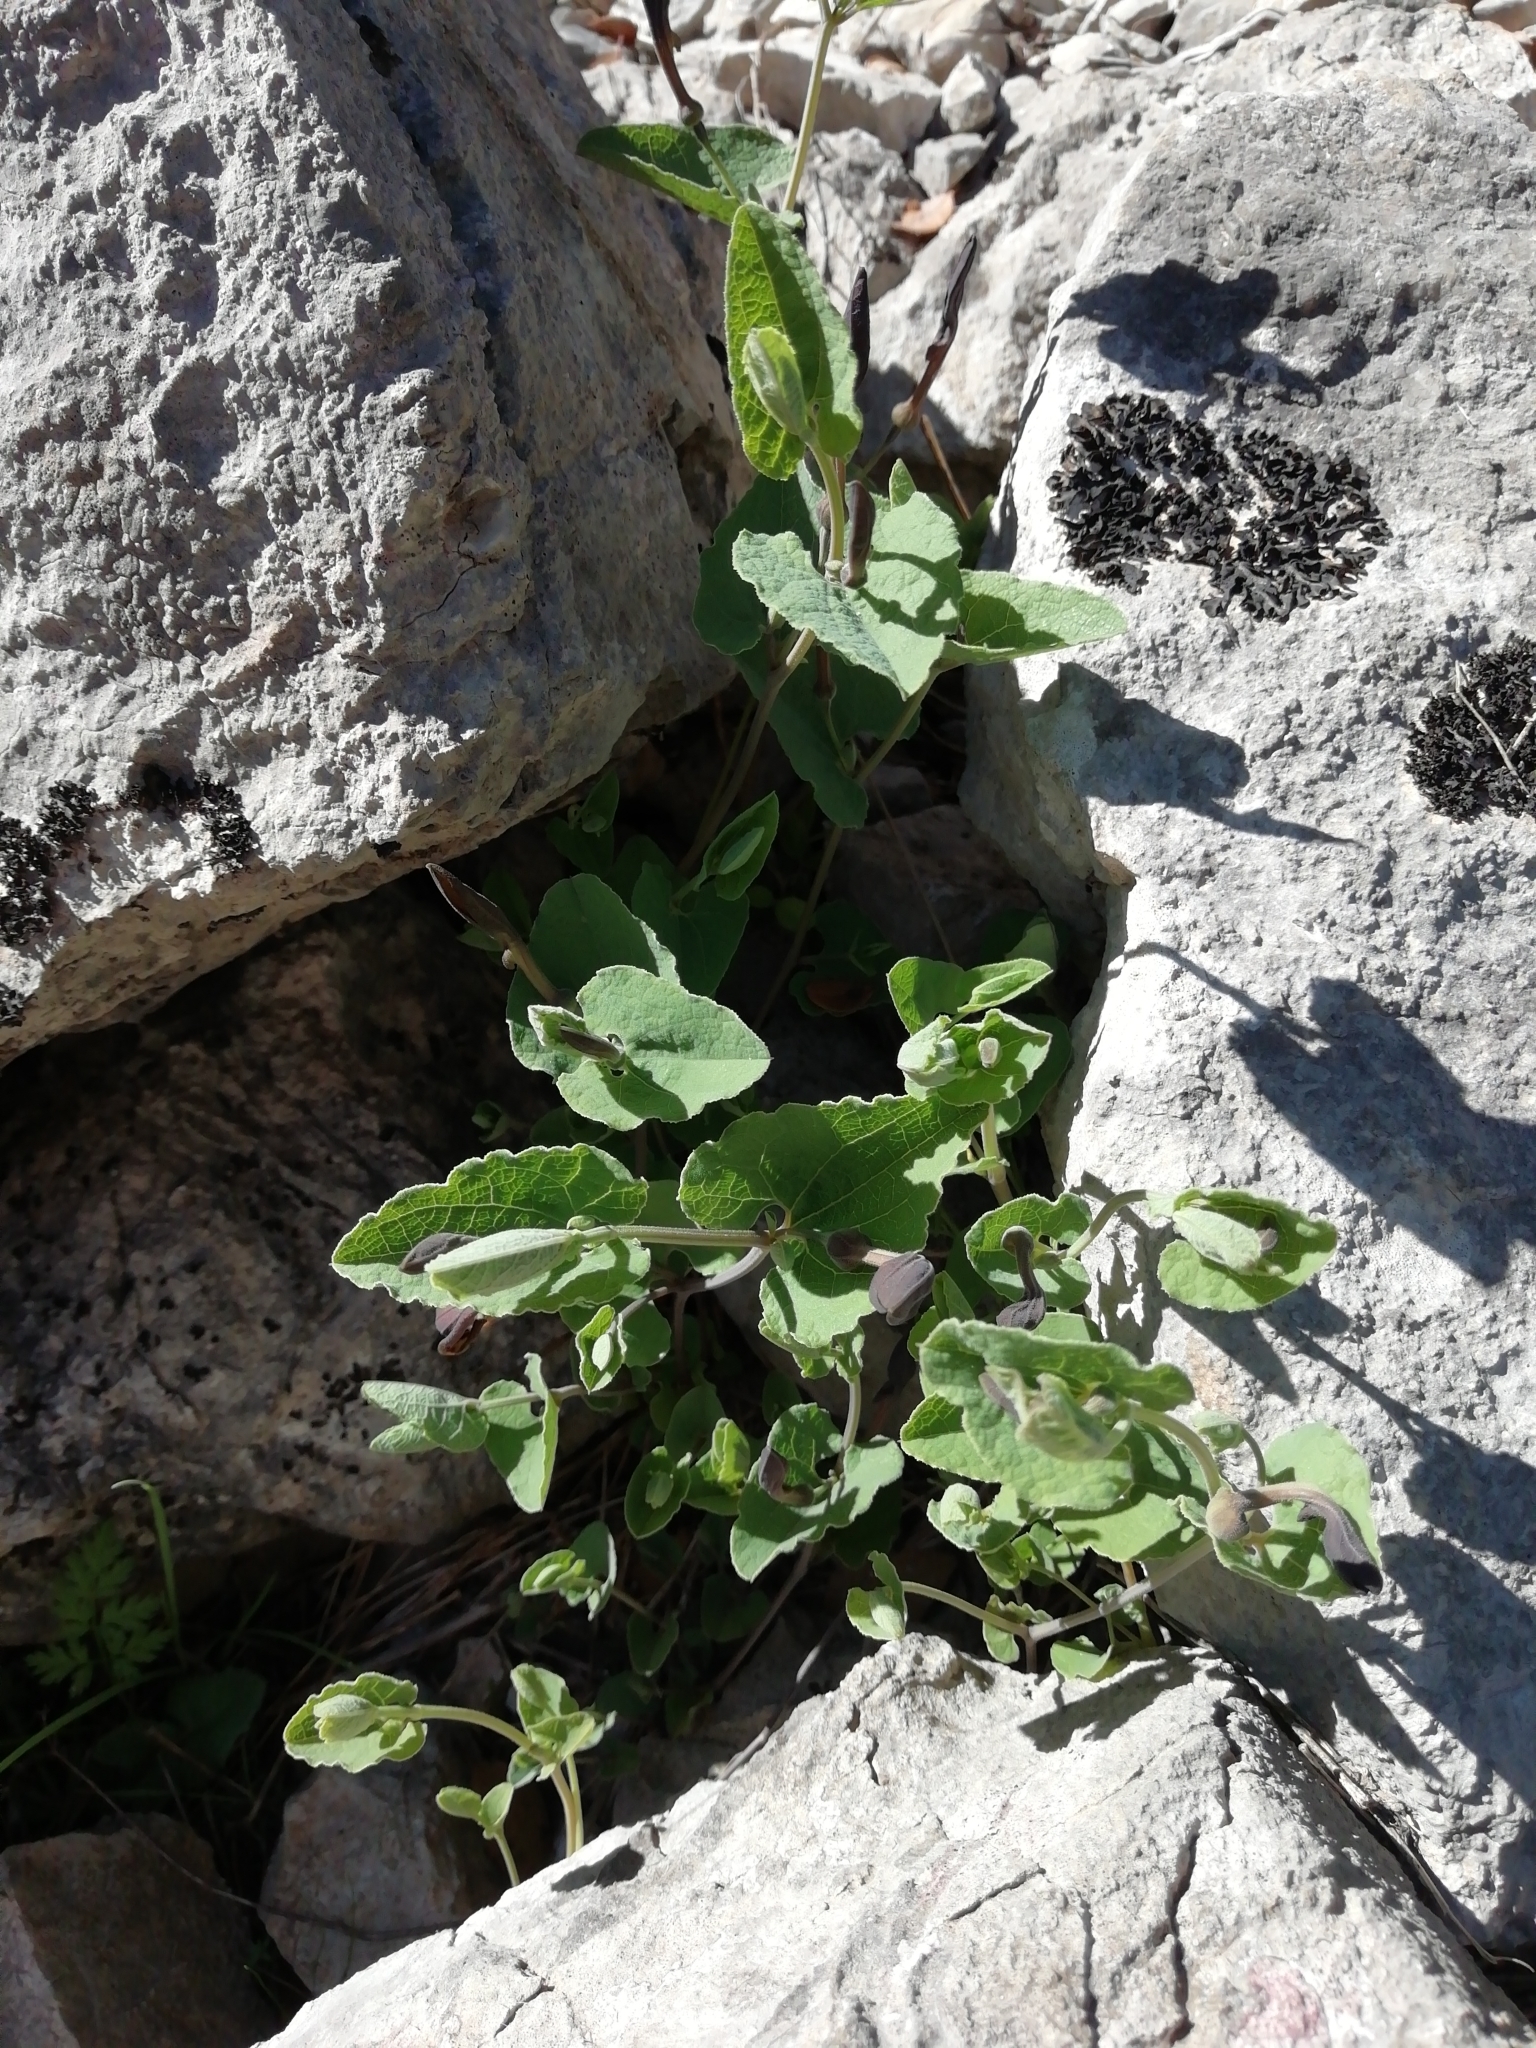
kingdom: Plantae
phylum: Tracheophyta
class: Magnoliopsida
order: Piperales
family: Aristolochiaceae
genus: Aristolochia
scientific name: Aristolochia pistolochia
